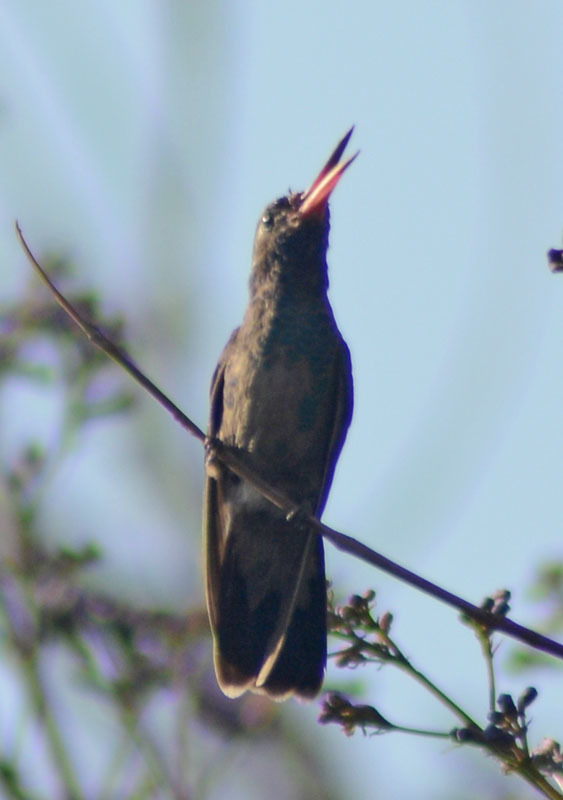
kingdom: Animalia
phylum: Chordata
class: Aves
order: Apodiformes
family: Trochilidae
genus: Cynanthus
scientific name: Cynanthus latirostris
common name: Broad-billed hummingbird
